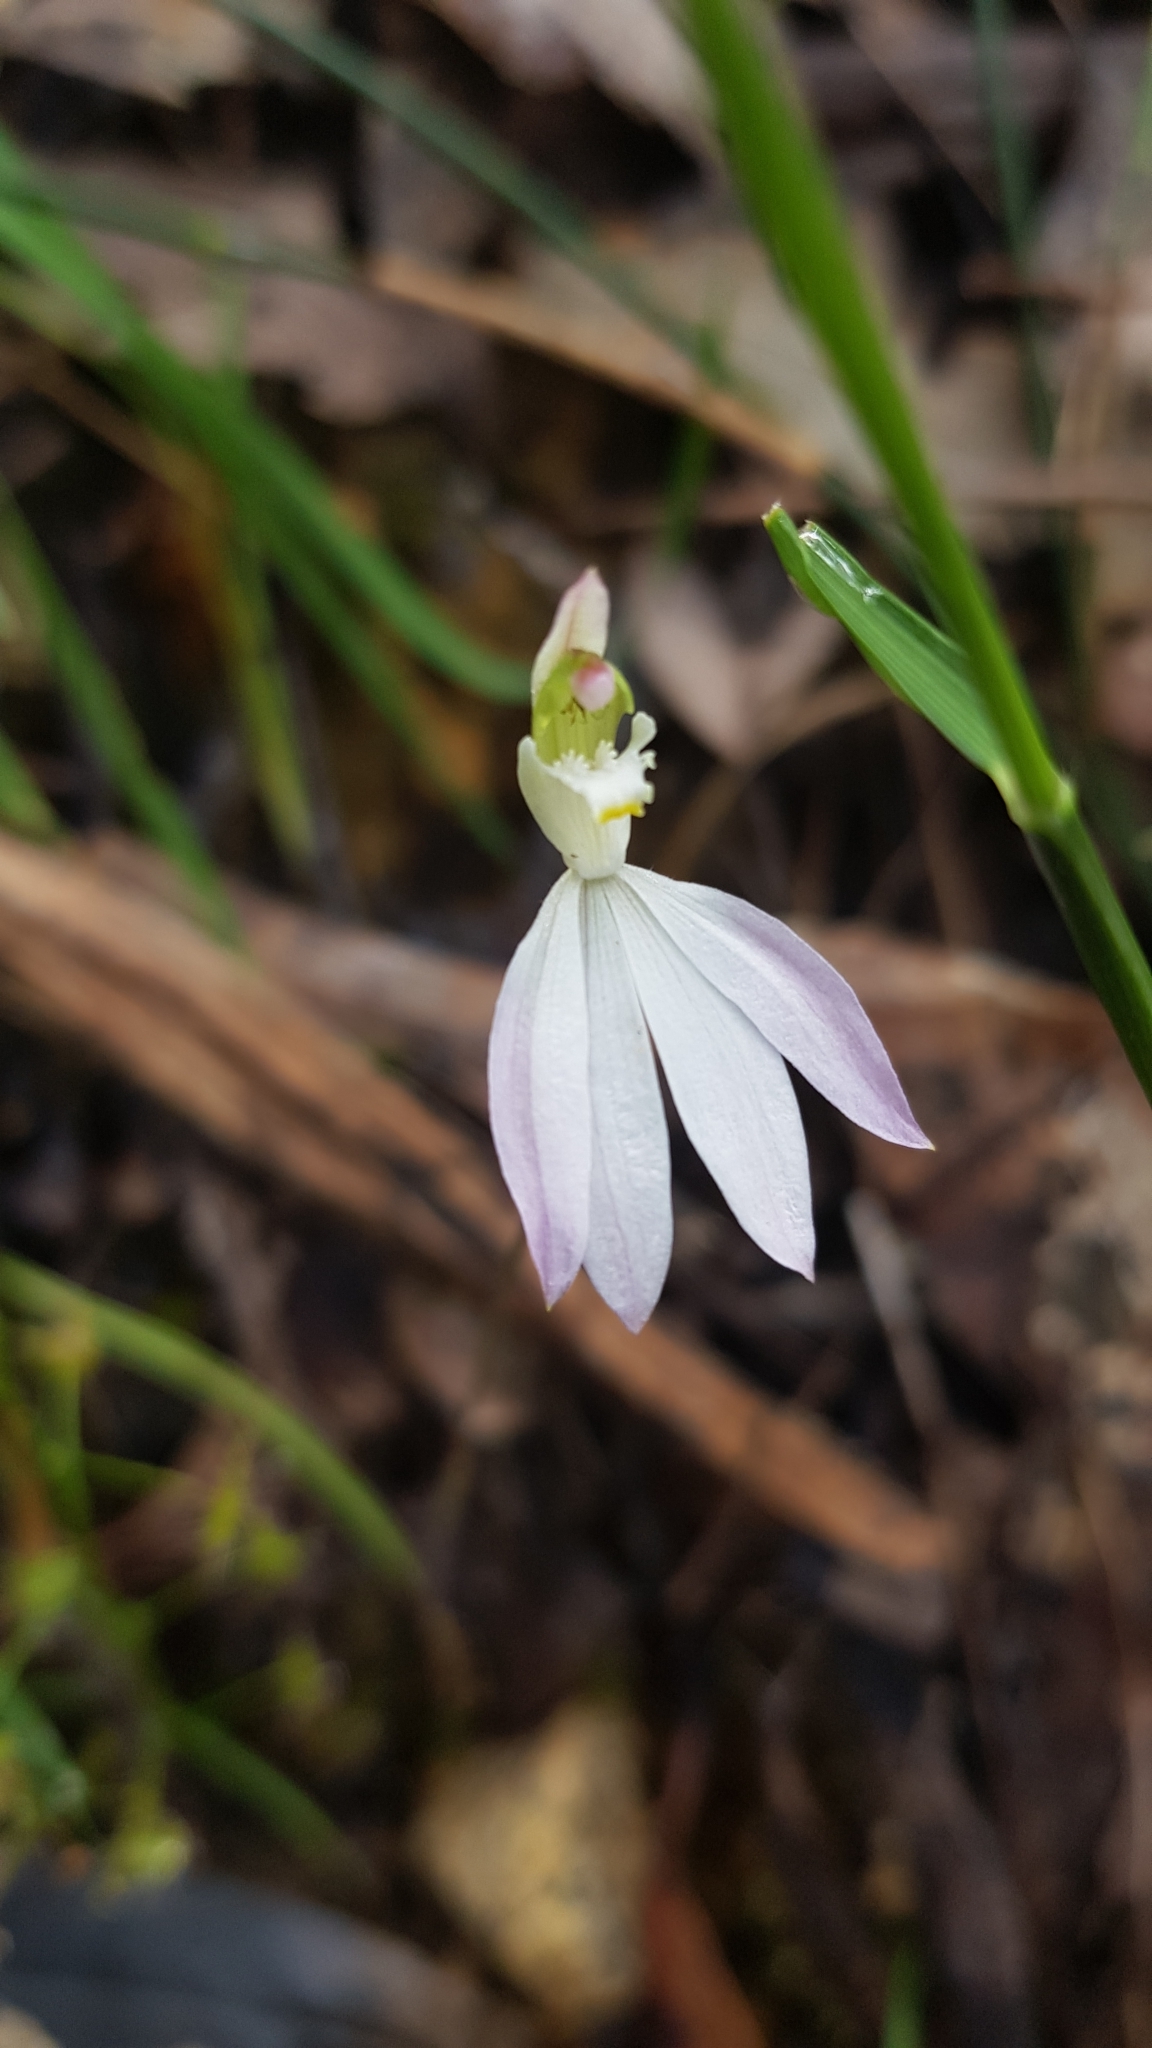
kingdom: Plantae
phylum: Tracheophyta
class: Liliopsida
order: Asparagales
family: Orchidaceae
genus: Caladenia
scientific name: Caladenia catenata
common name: White caladenia
